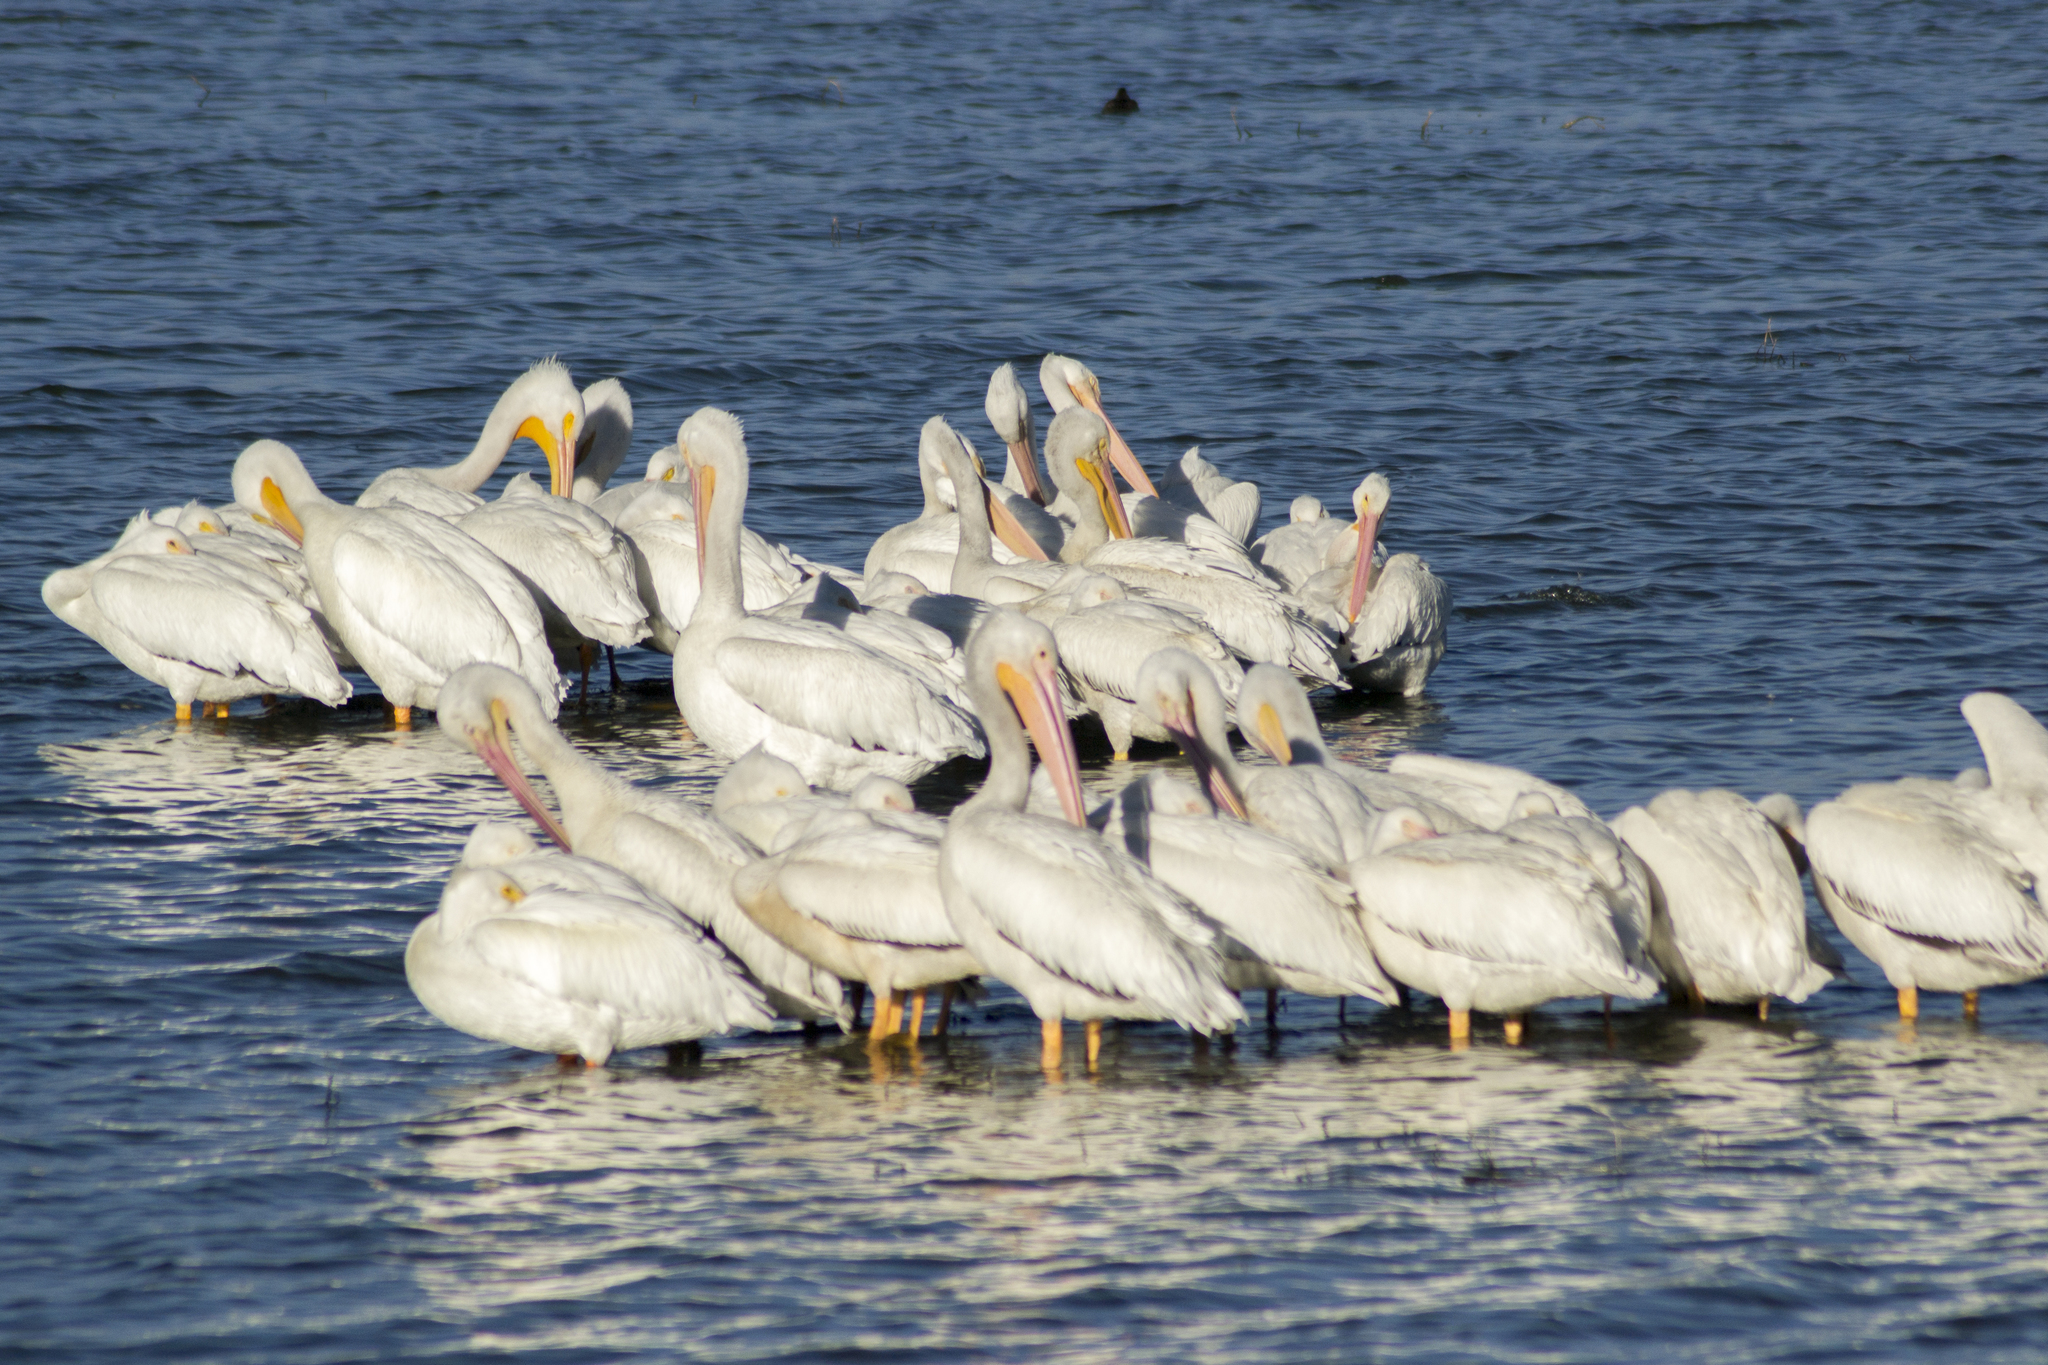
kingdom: Animalia
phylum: Chordata
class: Aves
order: Pelecaniformes
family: Pelecanidae
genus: Pelecanus
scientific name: Pelecanus erythrorhynchos
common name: American white pelican
